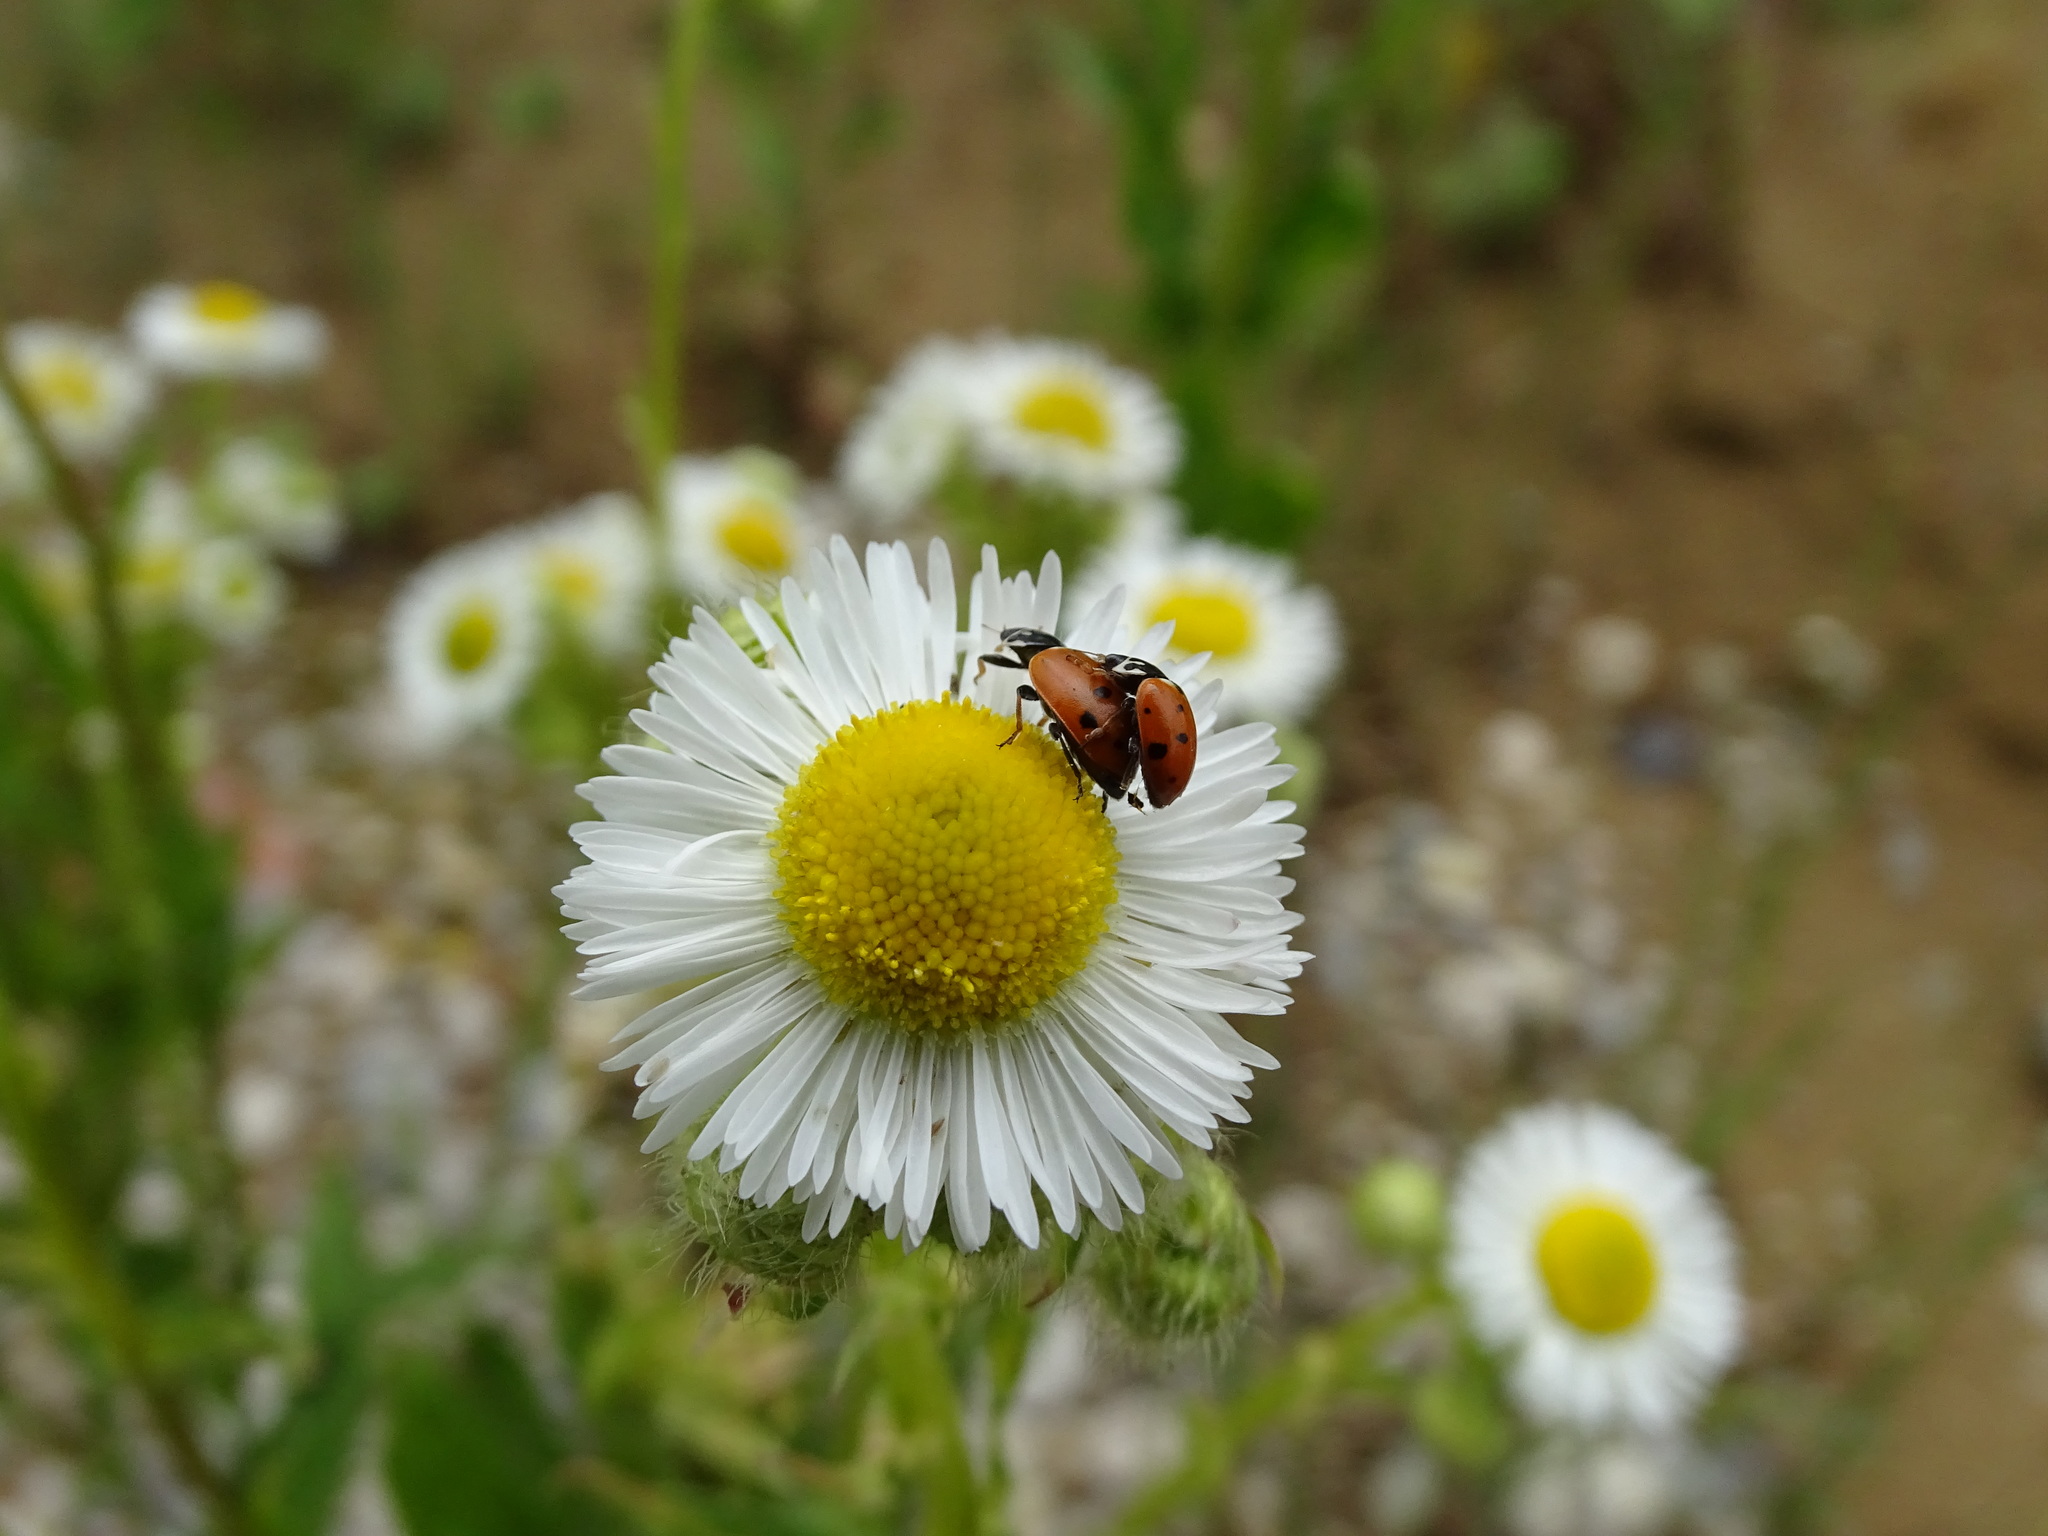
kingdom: Animalia
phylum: Arthropoda
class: Insecta
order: Coleoptera
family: Coccinellidae
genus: Hippodamia
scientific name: Hippodamia variegata
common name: Ladybird beetle
